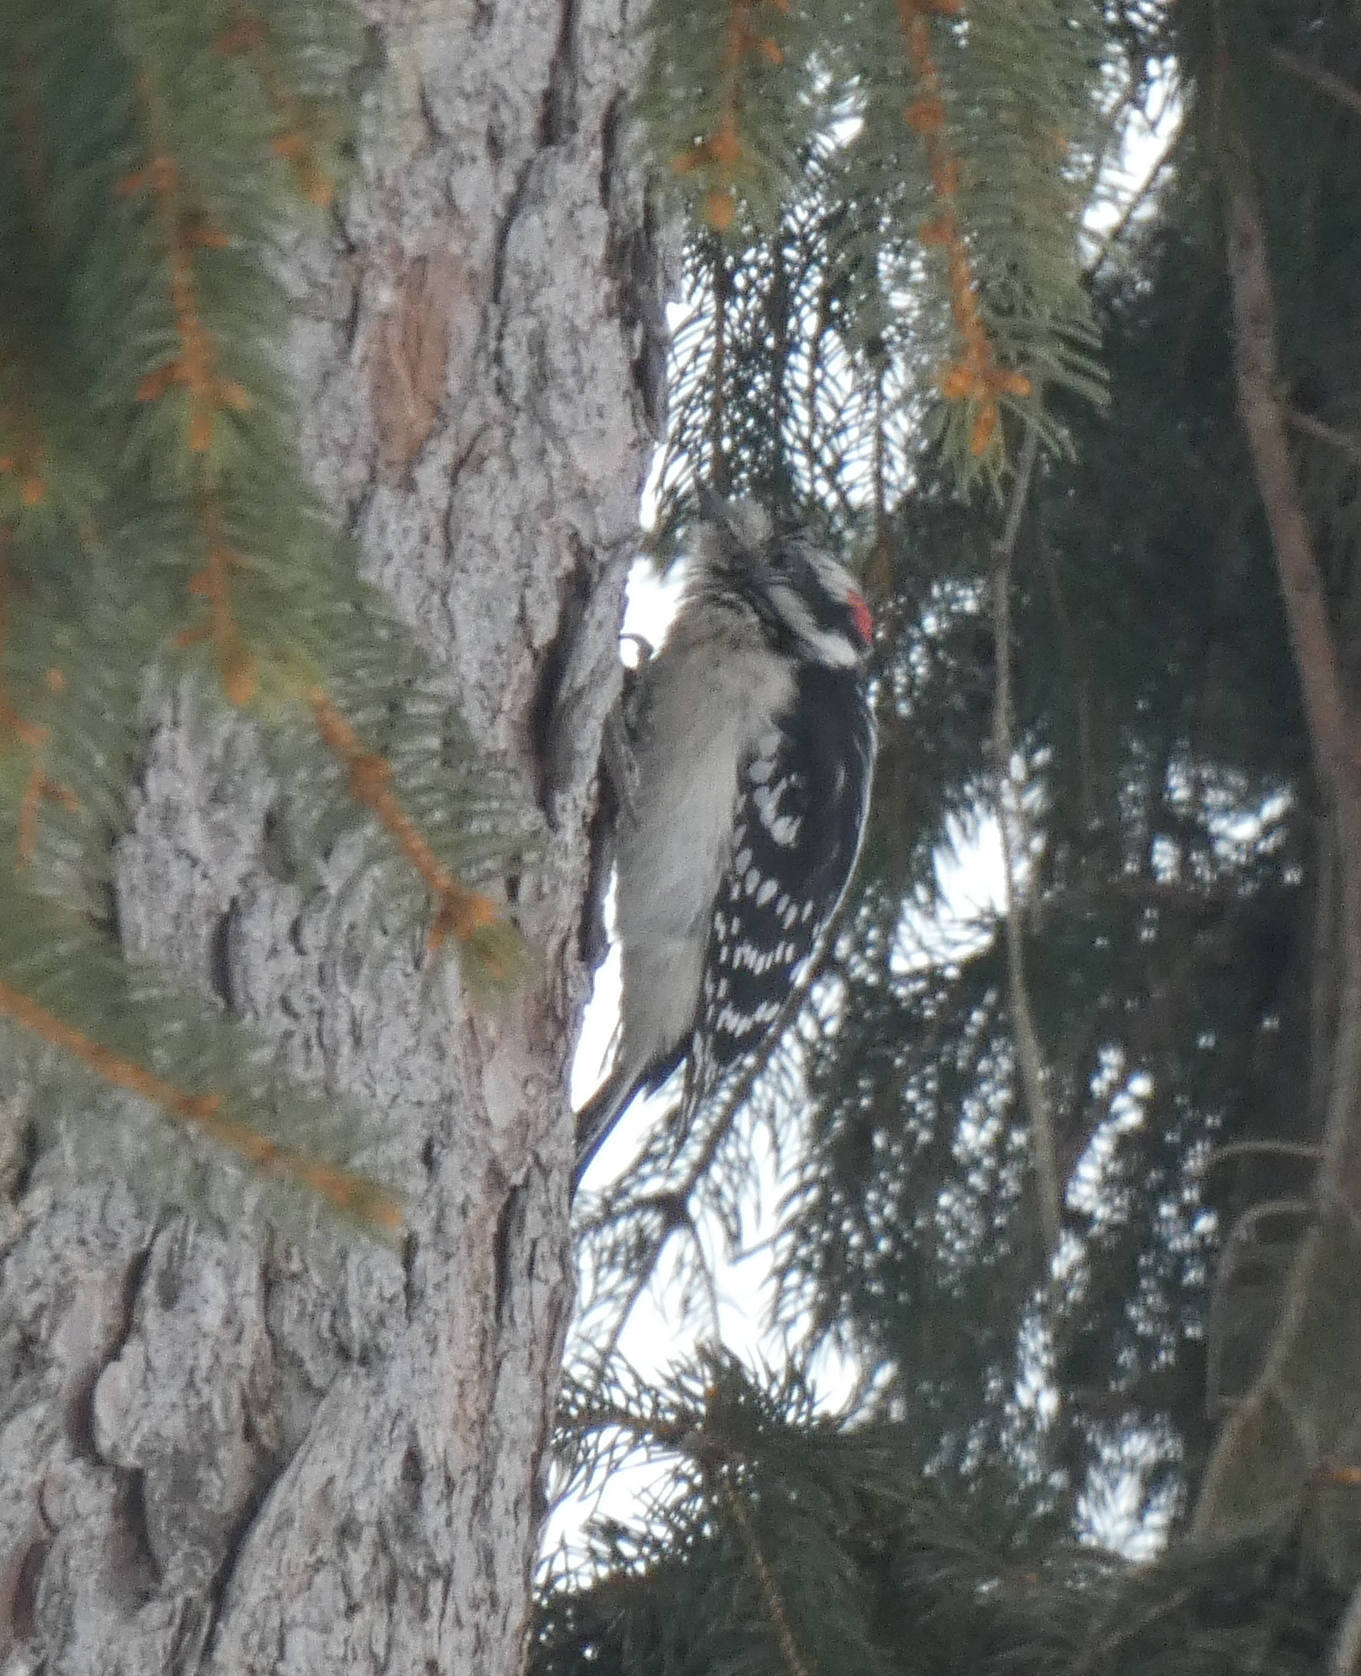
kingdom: Animalia
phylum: Chordata
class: Aves
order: Piciformes
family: Picidae
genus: Dryobates
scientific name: Dryobates pubescens
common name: Downy woodpecker
